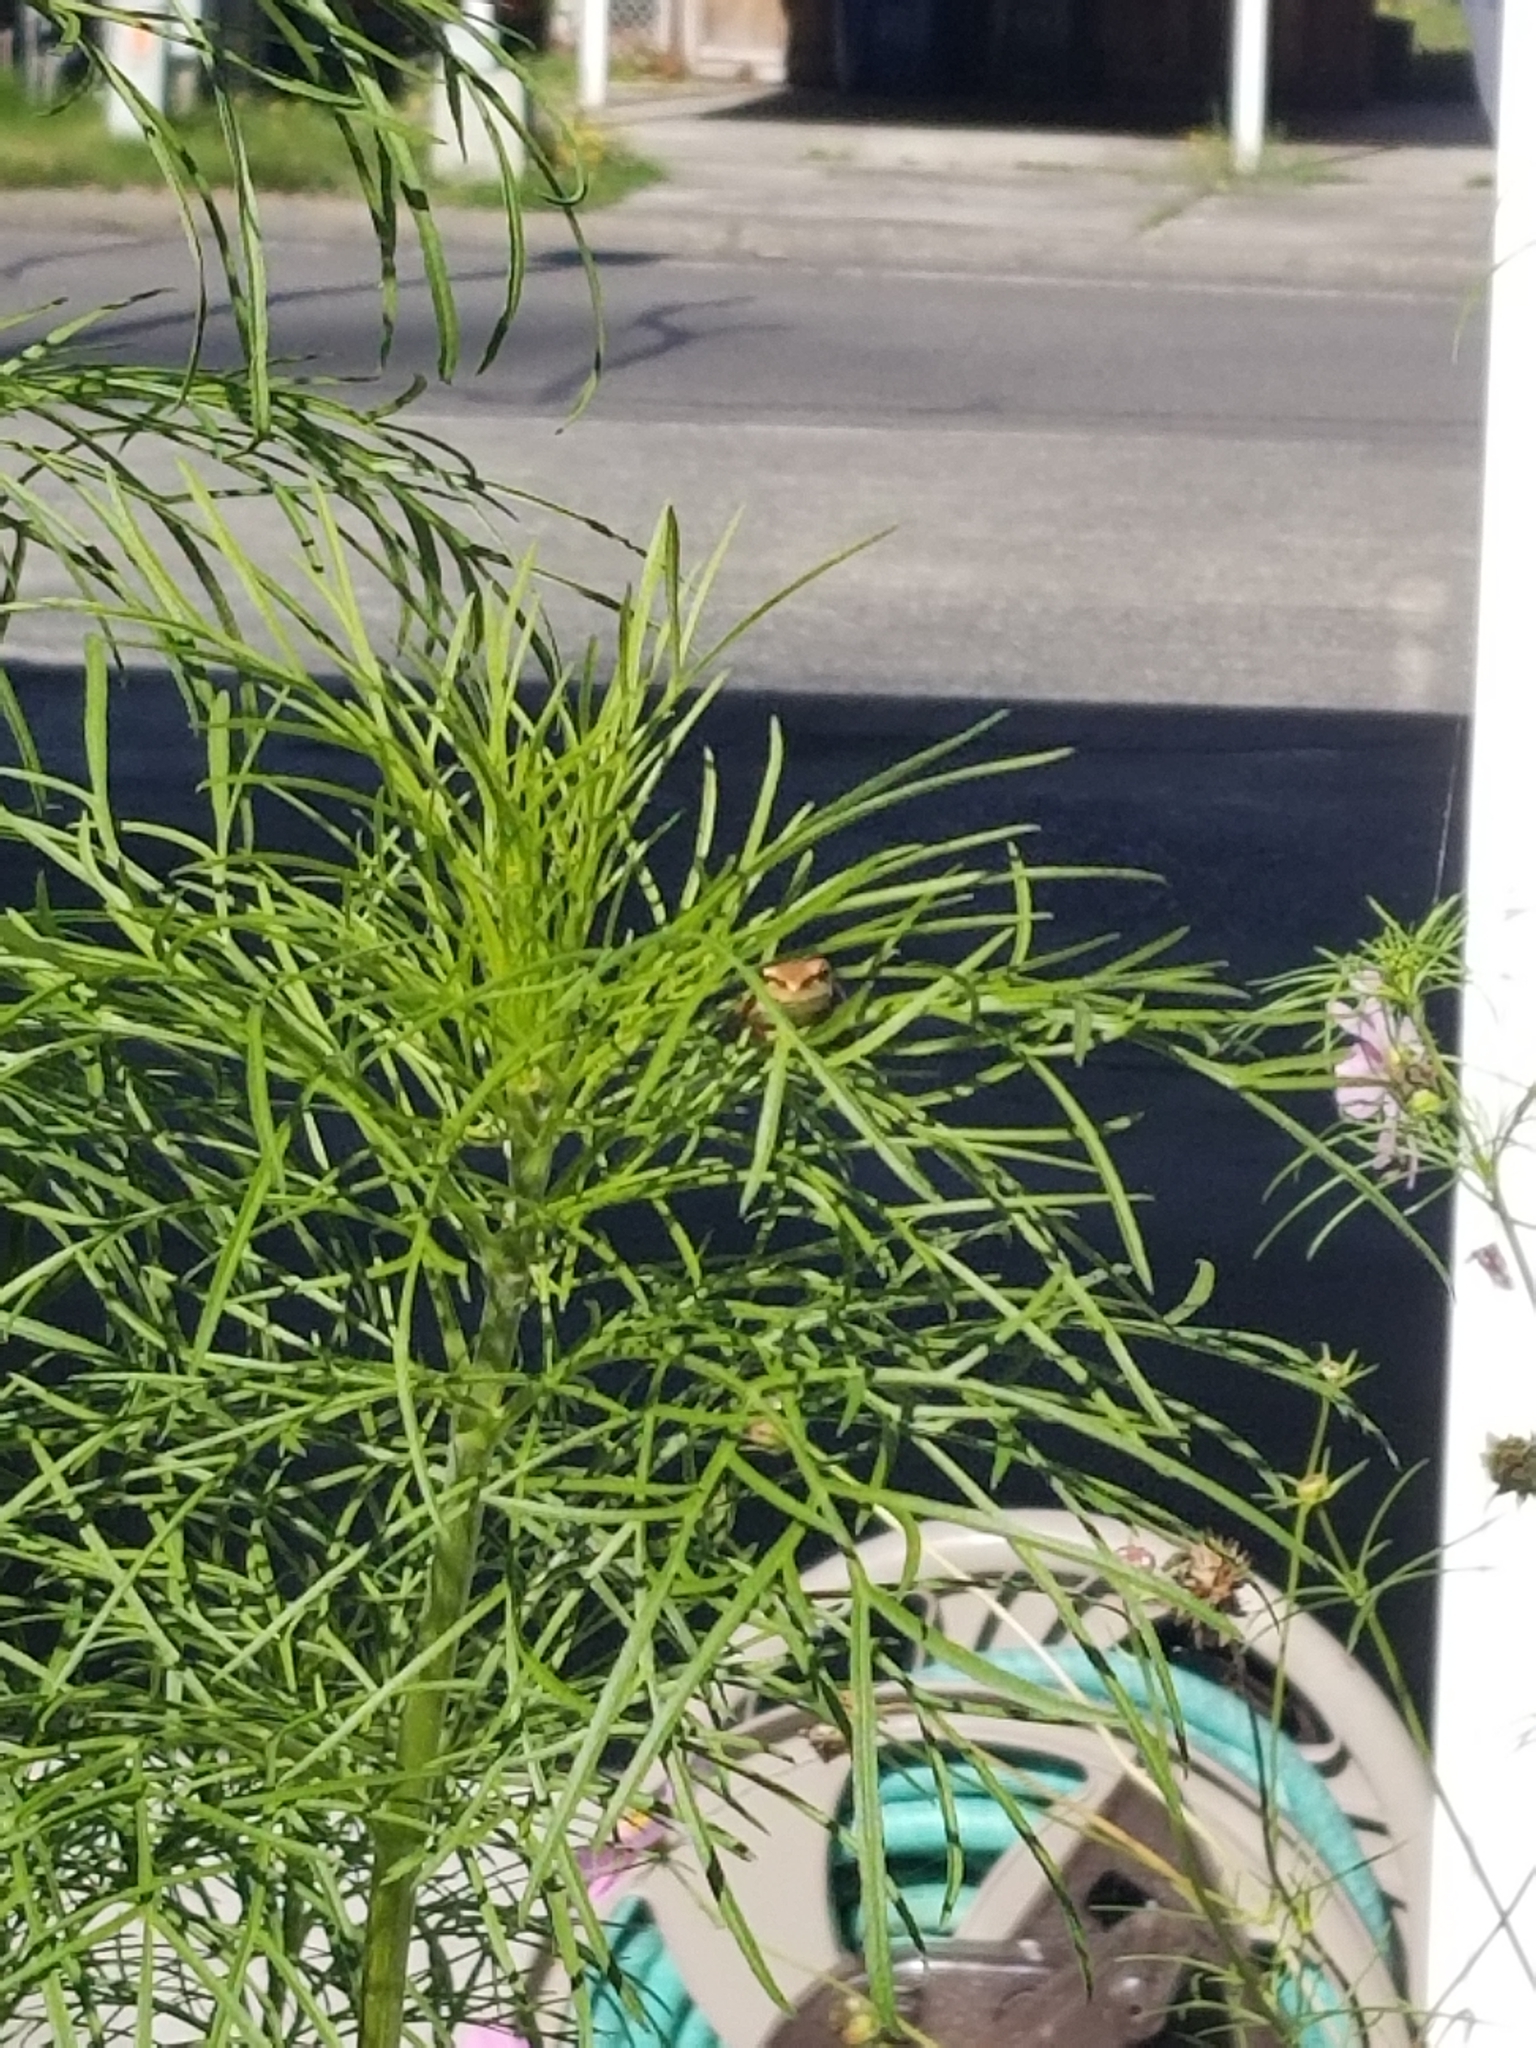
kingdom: Animalia
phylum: Chordata
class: Amphibia
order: Anura
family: Hylidae
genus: Pseudacris
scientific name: Pseudacris regilla
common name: Pacific chorus frog
